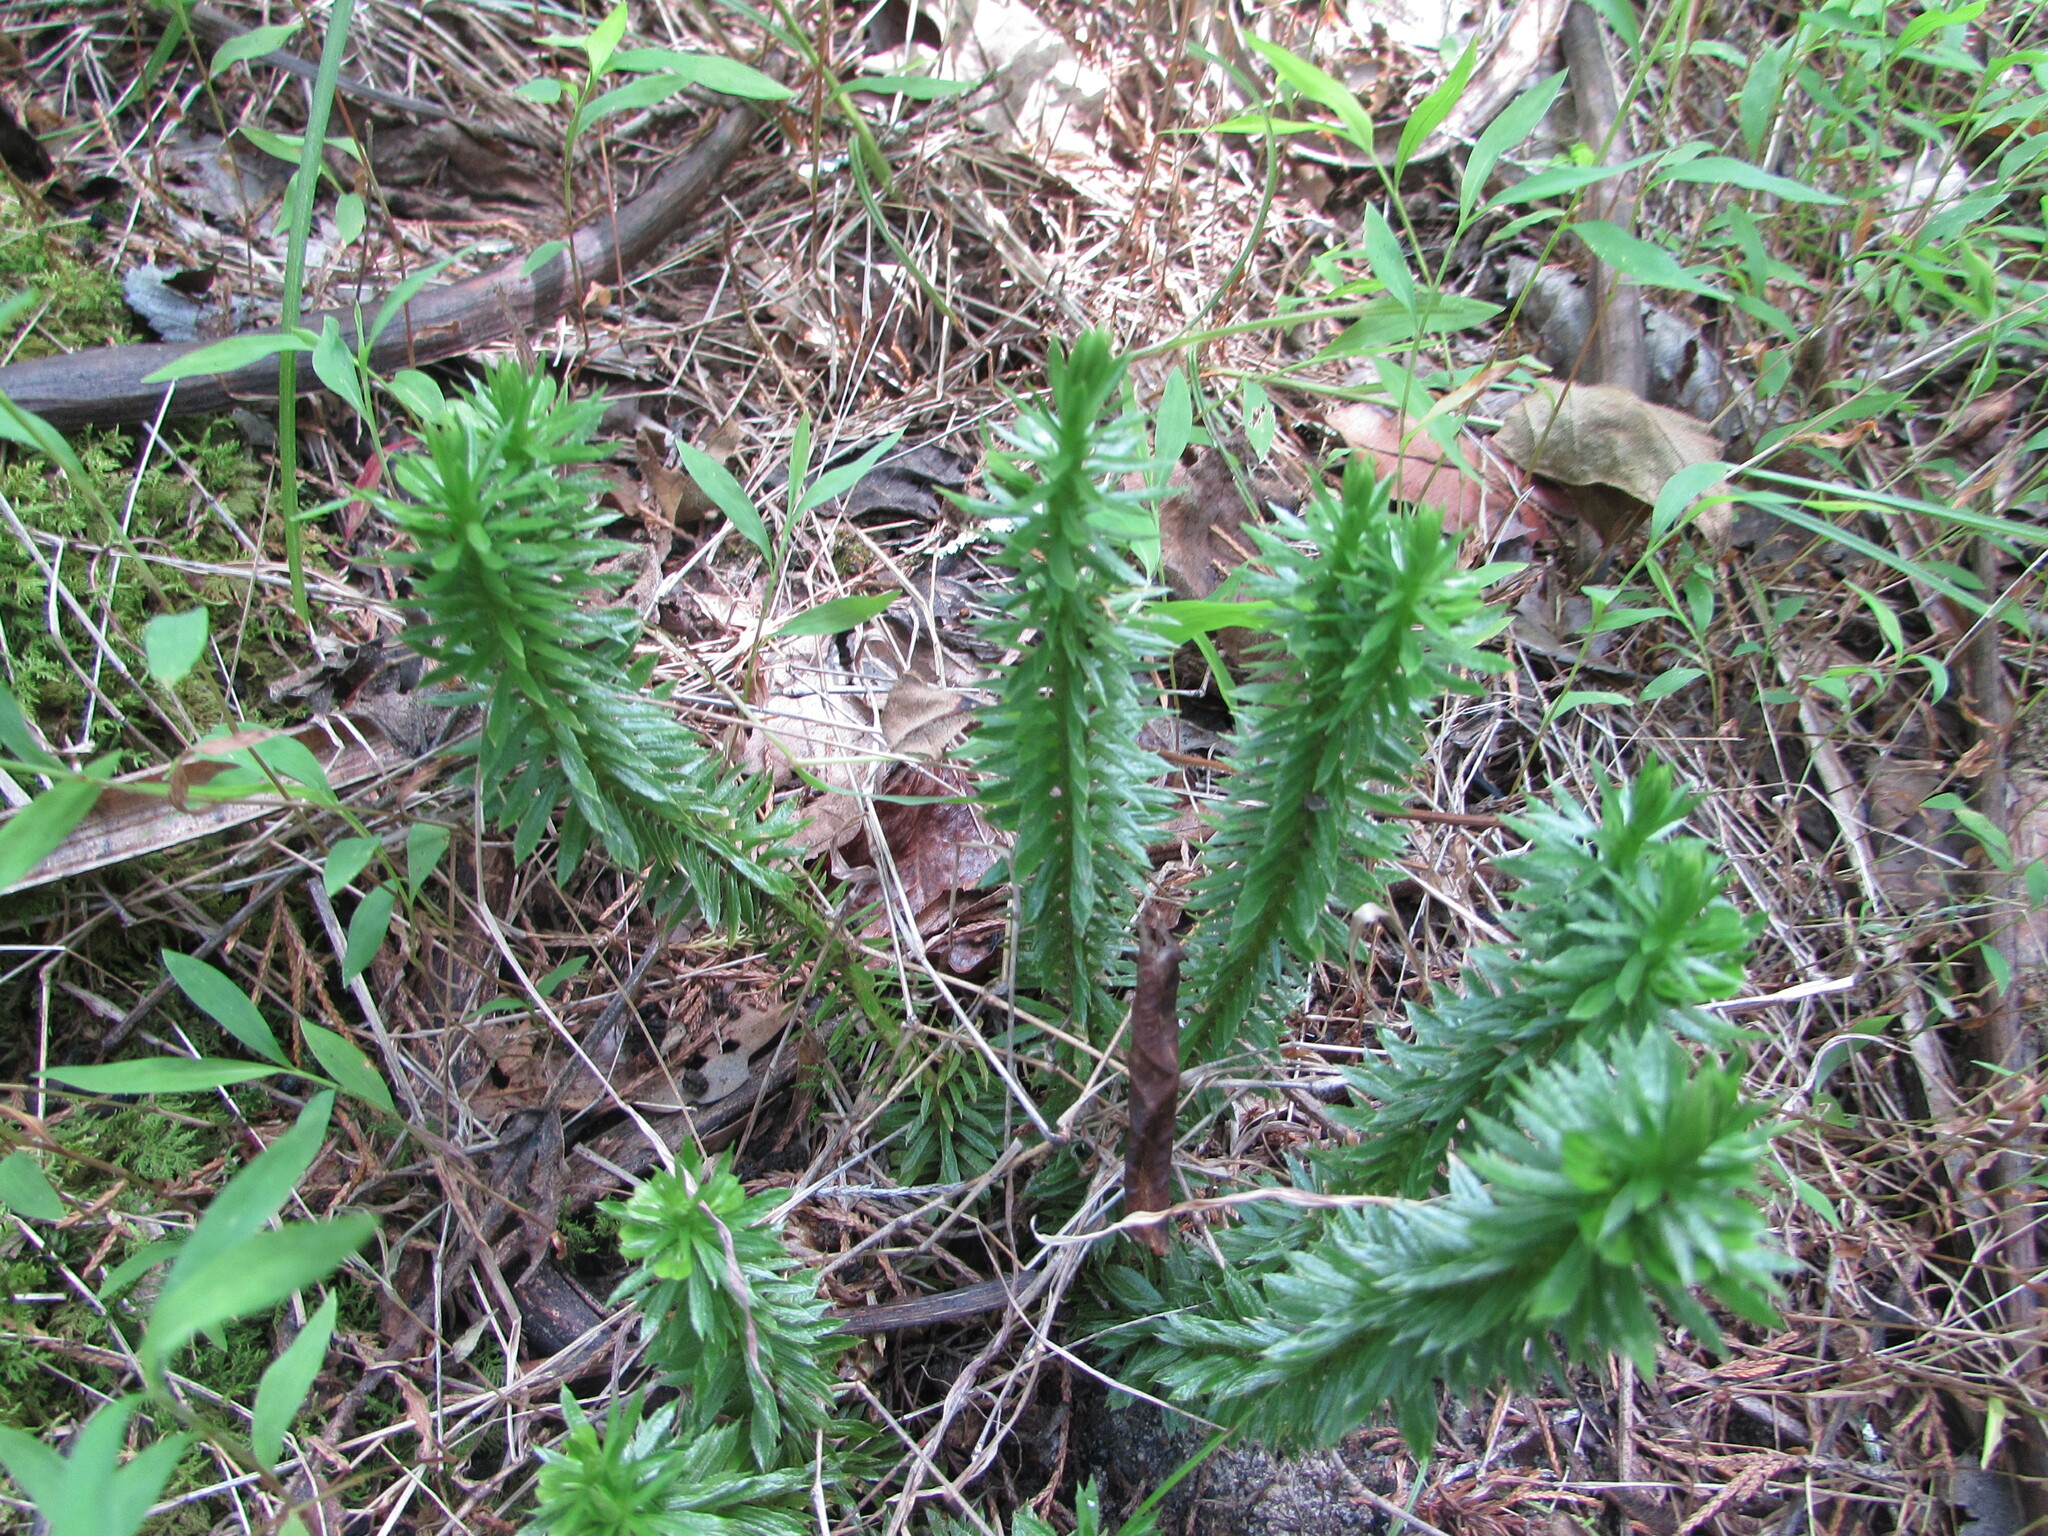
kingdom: Plantae
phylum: Tracheophyta
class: Lycopodiopsida
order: Lycopodiales
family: Lycopodiaceae
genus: Huperzia
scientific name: Huperzia lucidula
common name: Shining clubmoss
